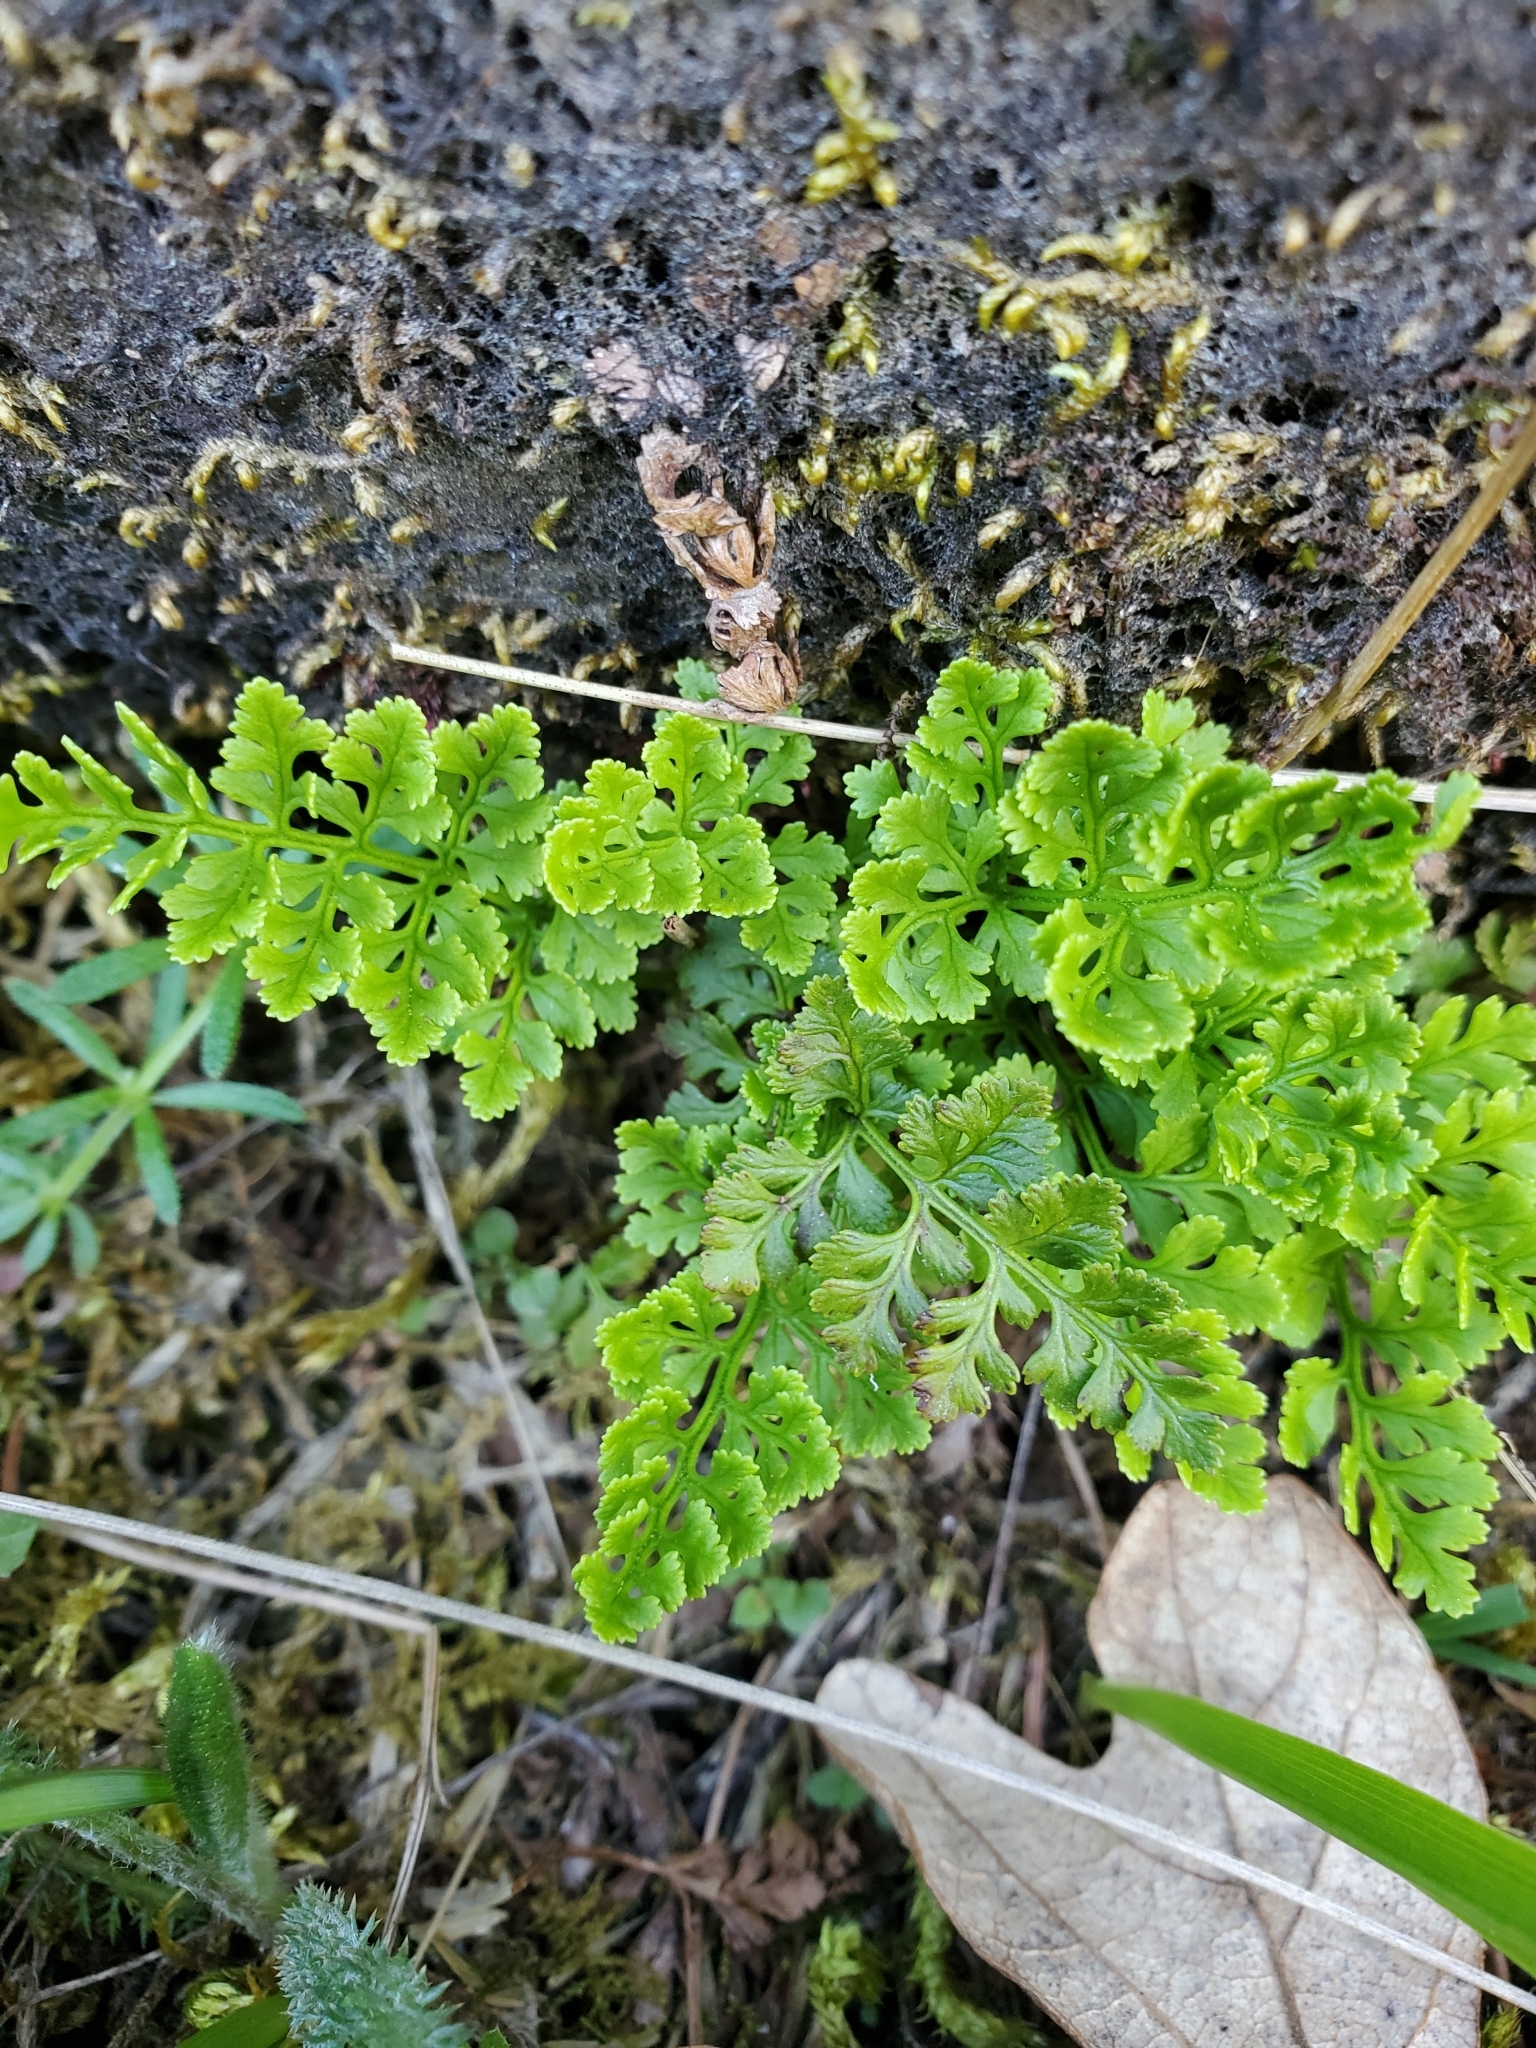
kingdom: Plantae
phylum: Tracheophyta
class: Polypodiopsida
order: Polypodiales
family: Pteridaceae
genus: Cryptogramma
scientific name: Cryptogramma acrostichoides
